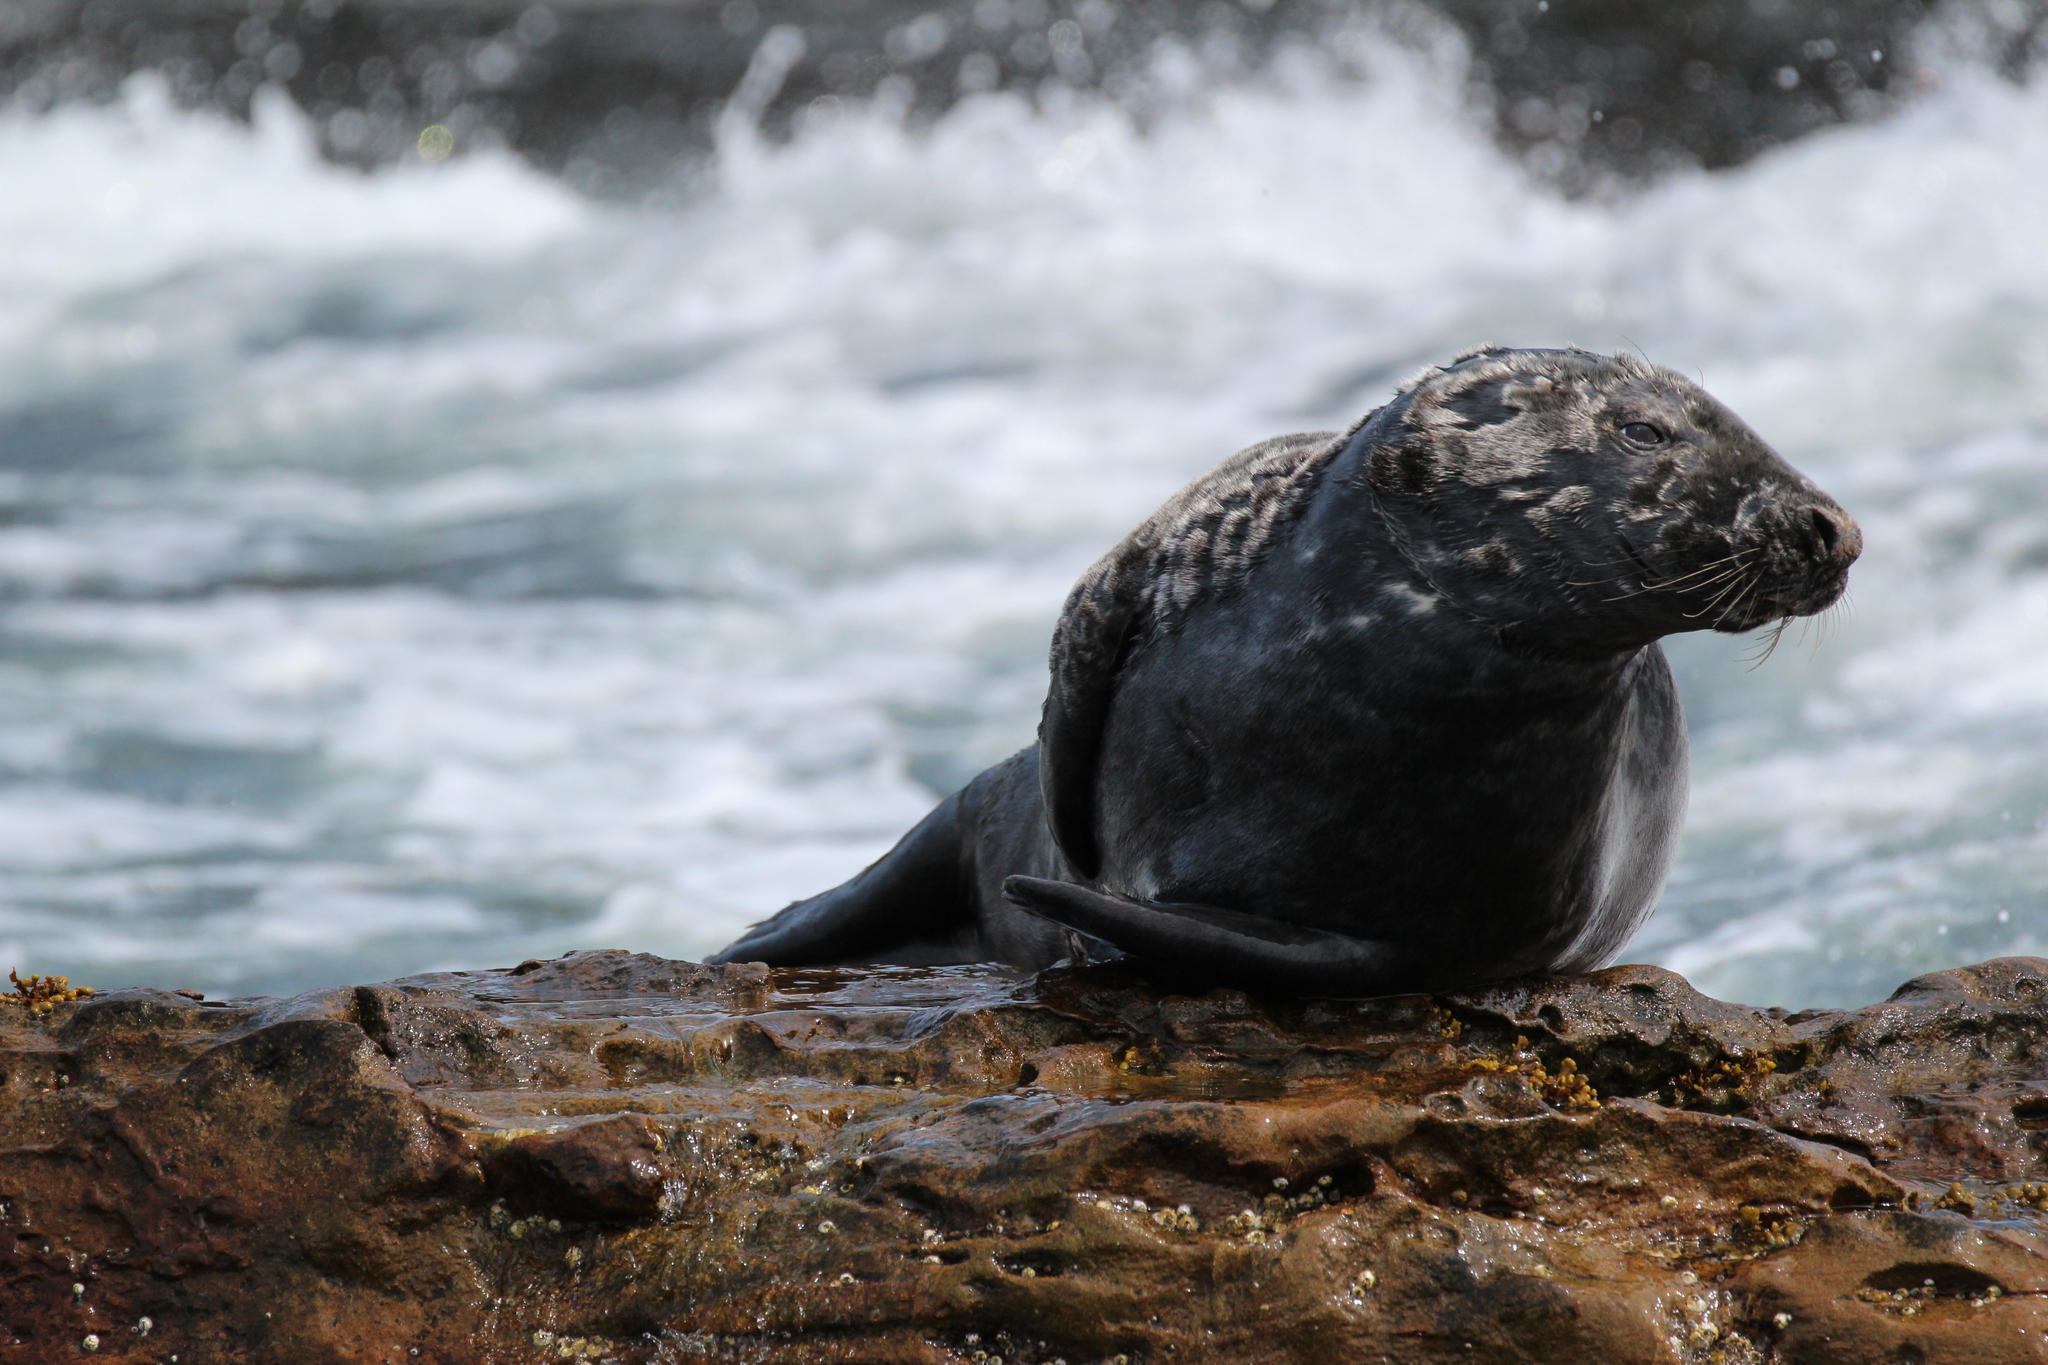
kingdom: Animalia
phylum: Chordata
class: Mammalia
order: Carnivora
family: Phocidae
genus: Halichoerus
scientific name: Halichoerus grypus
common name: Grey seal
